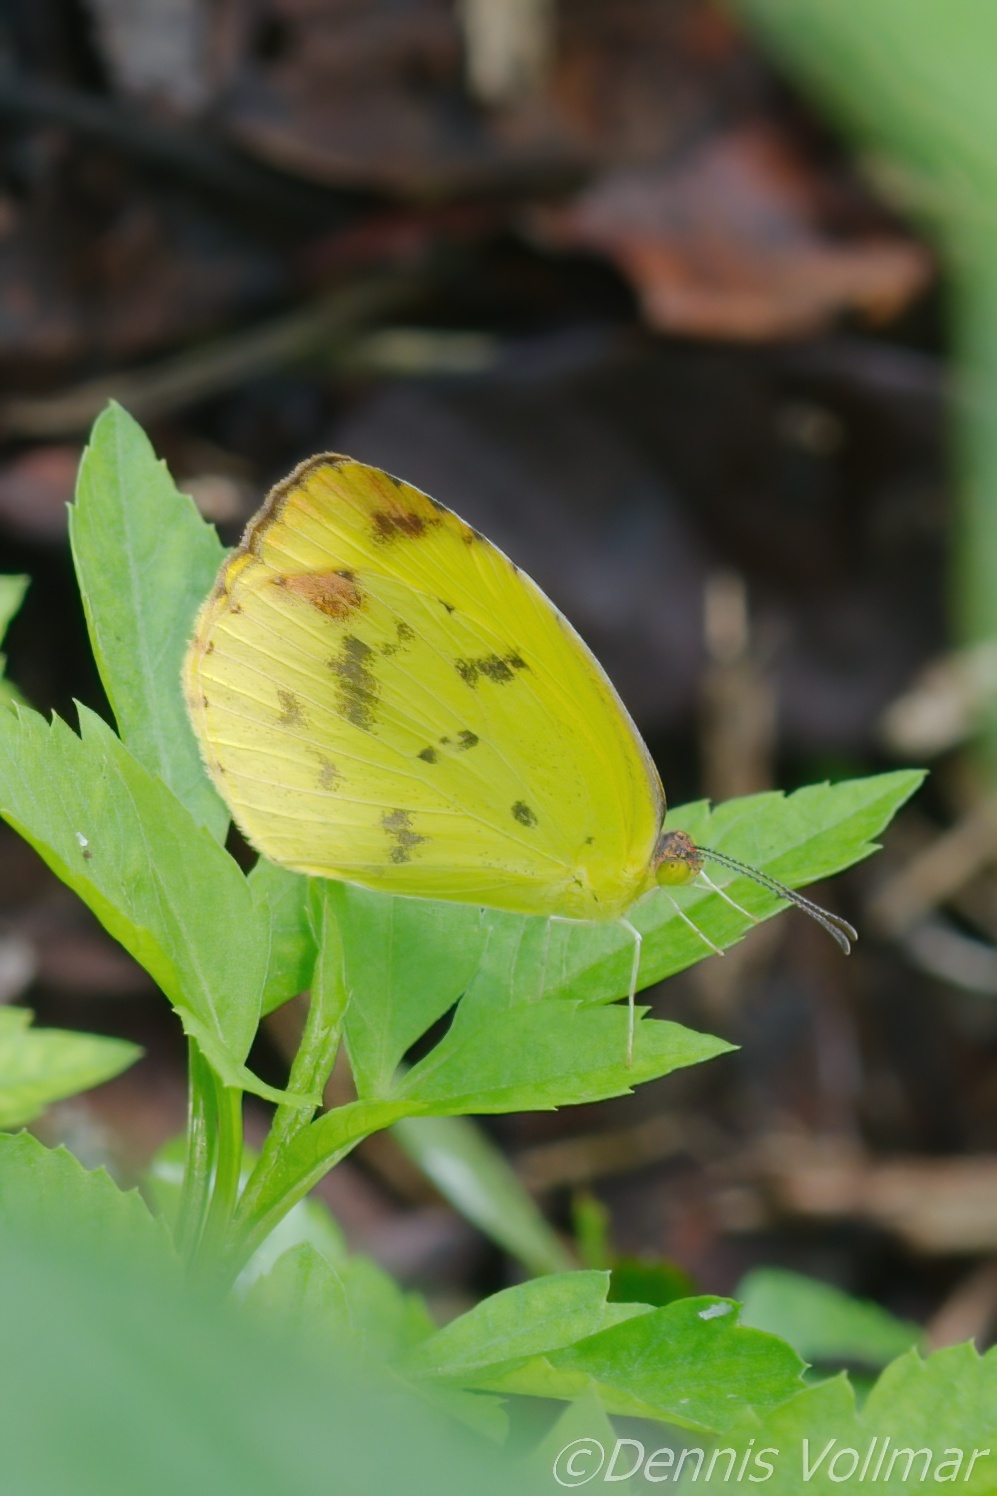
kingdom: Animalia
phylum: Arthropoda
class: Insecta
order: Lepidoptera
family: Pieridae
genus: Pyrisitia
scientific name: Pyrisitia dina
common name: Dina yellow
